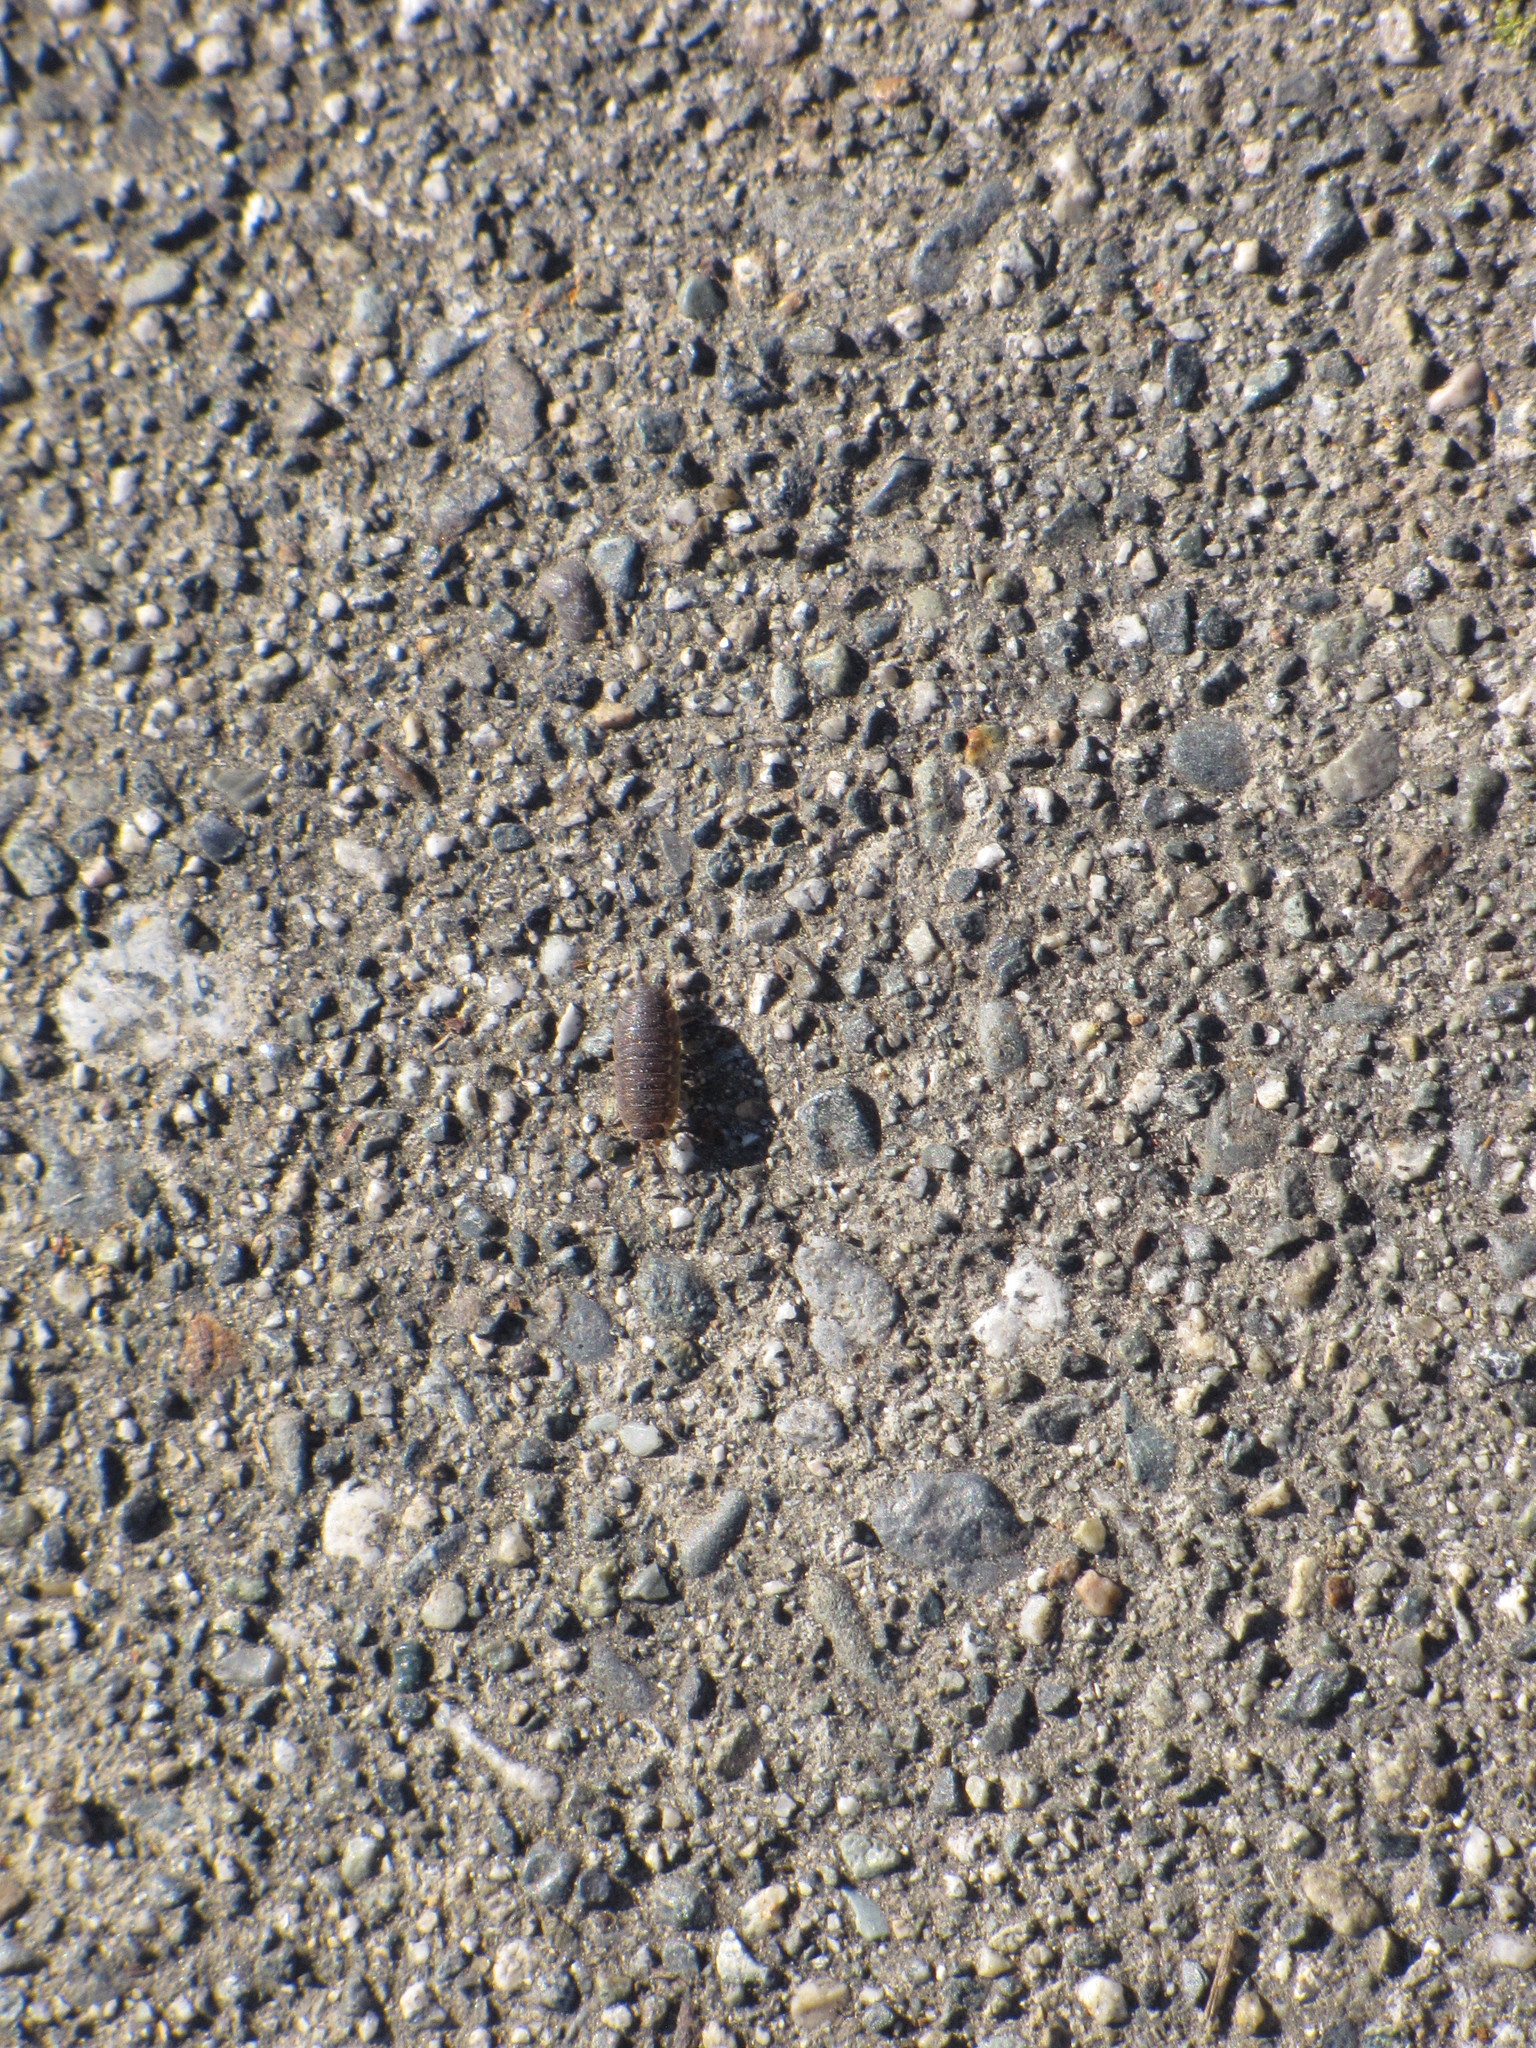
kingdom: Animalia
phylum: Arthropoda
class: Malacostraca
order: Isopoda
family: Porcellionidae
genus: Porcellio
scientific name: Porcellio scaber
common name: Common rough woodlouse
